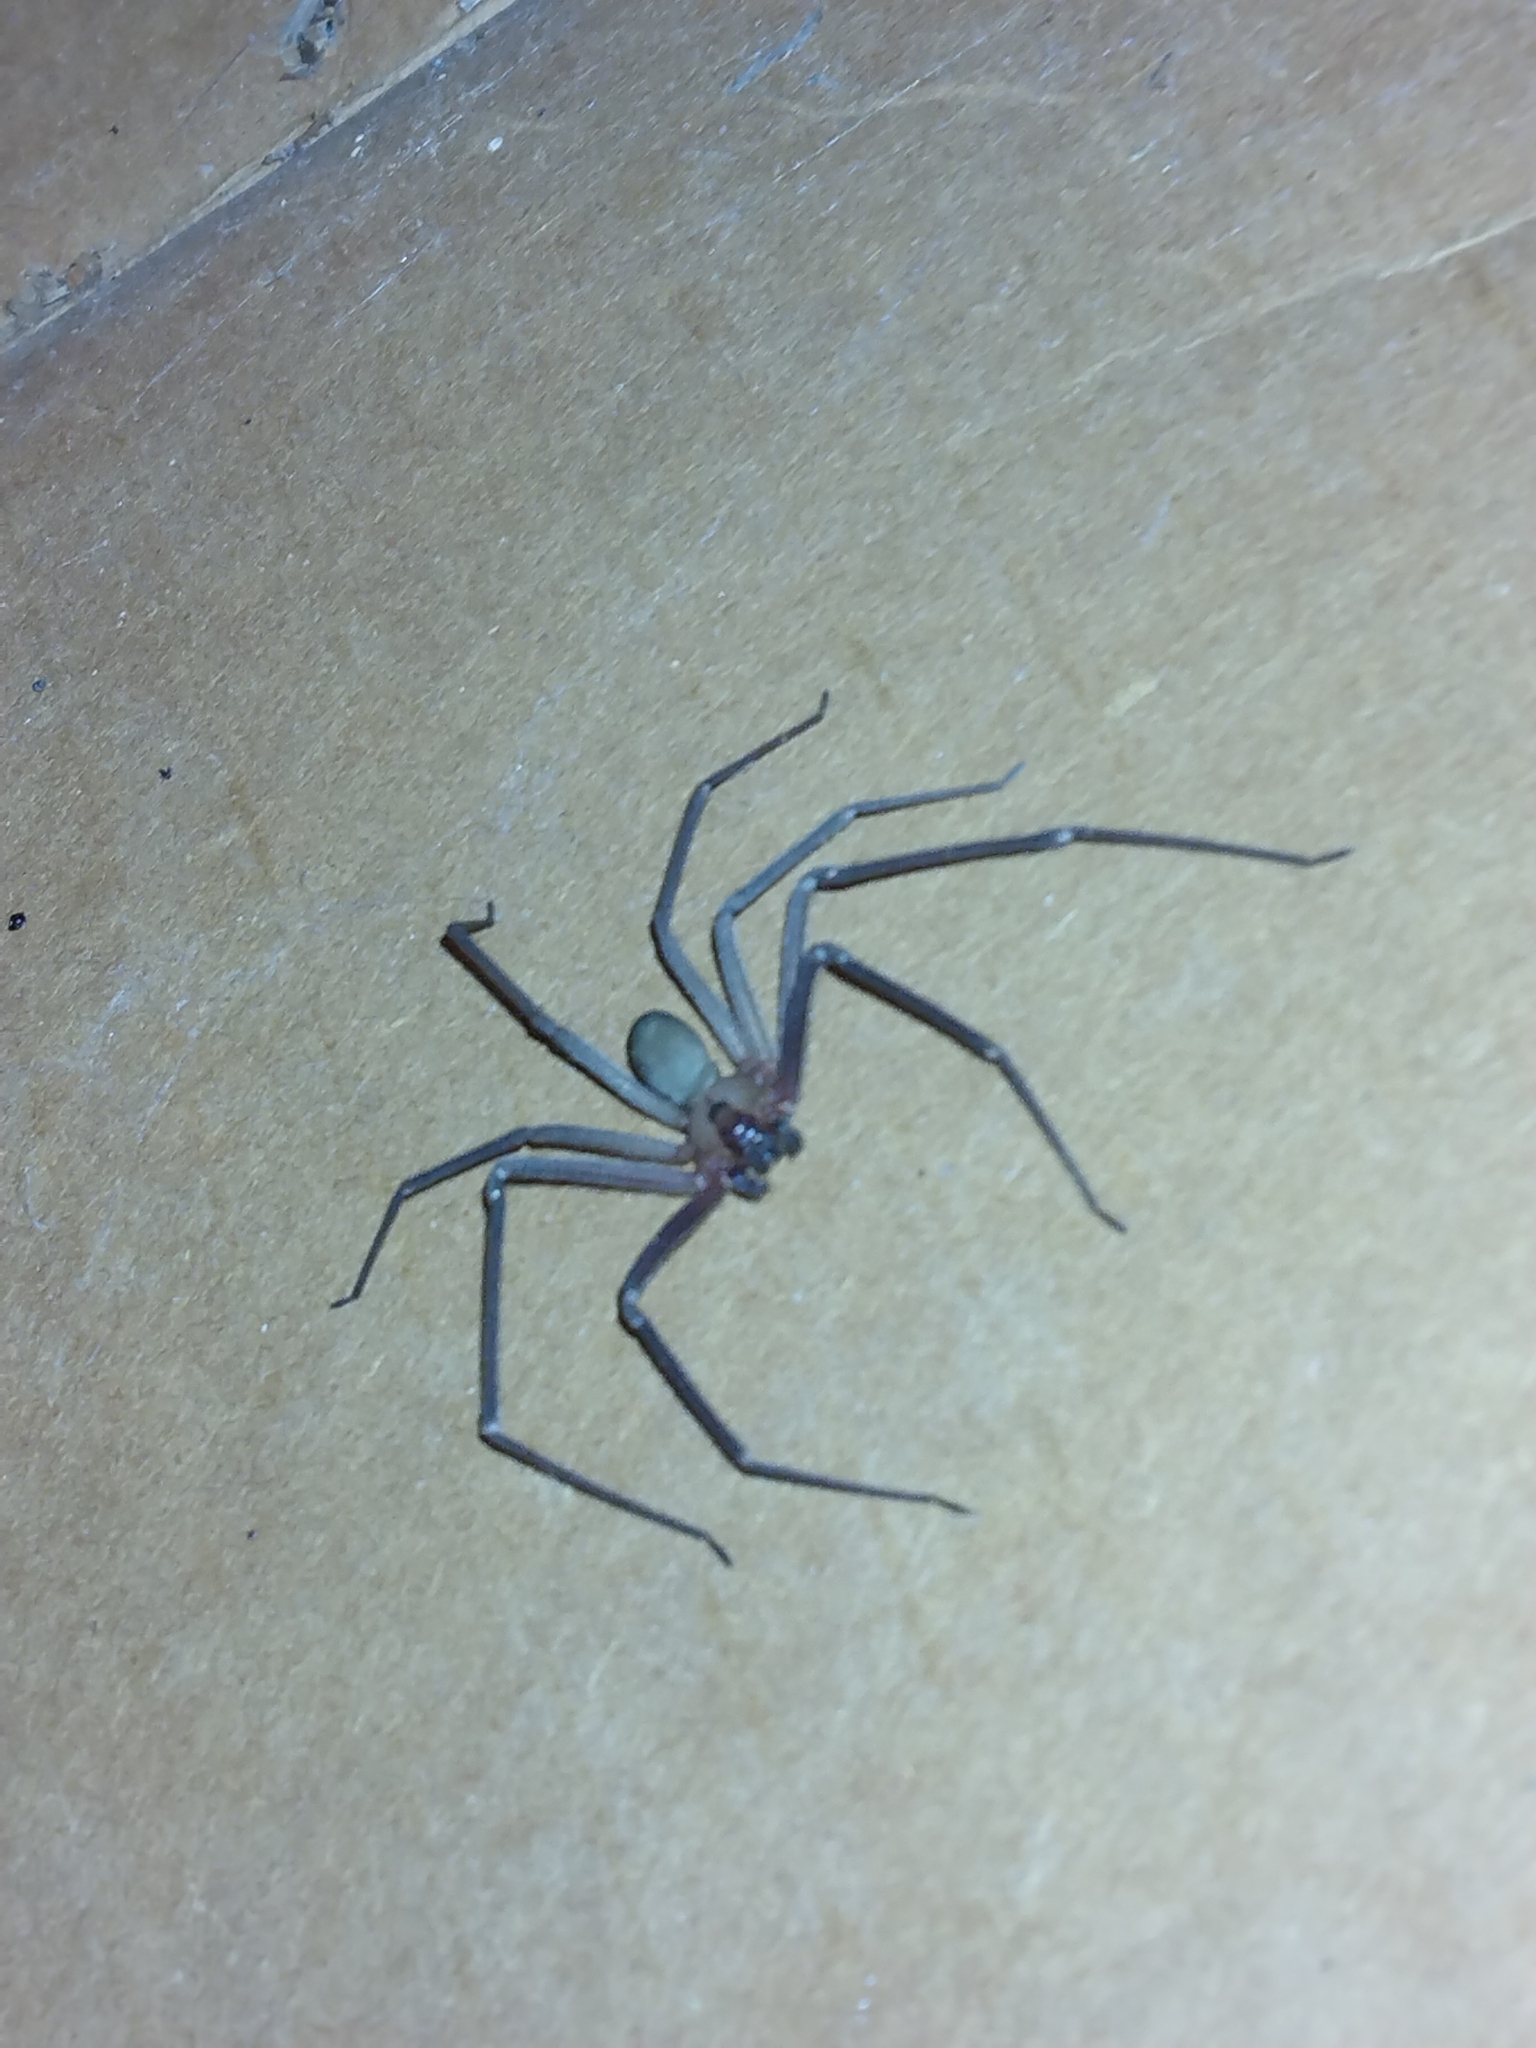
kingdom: Animalia
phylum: Arthropoda
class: Arachnida
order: Araneae
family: Sicariidae
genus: Loxosceles
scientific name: Loxosceles reclusa
